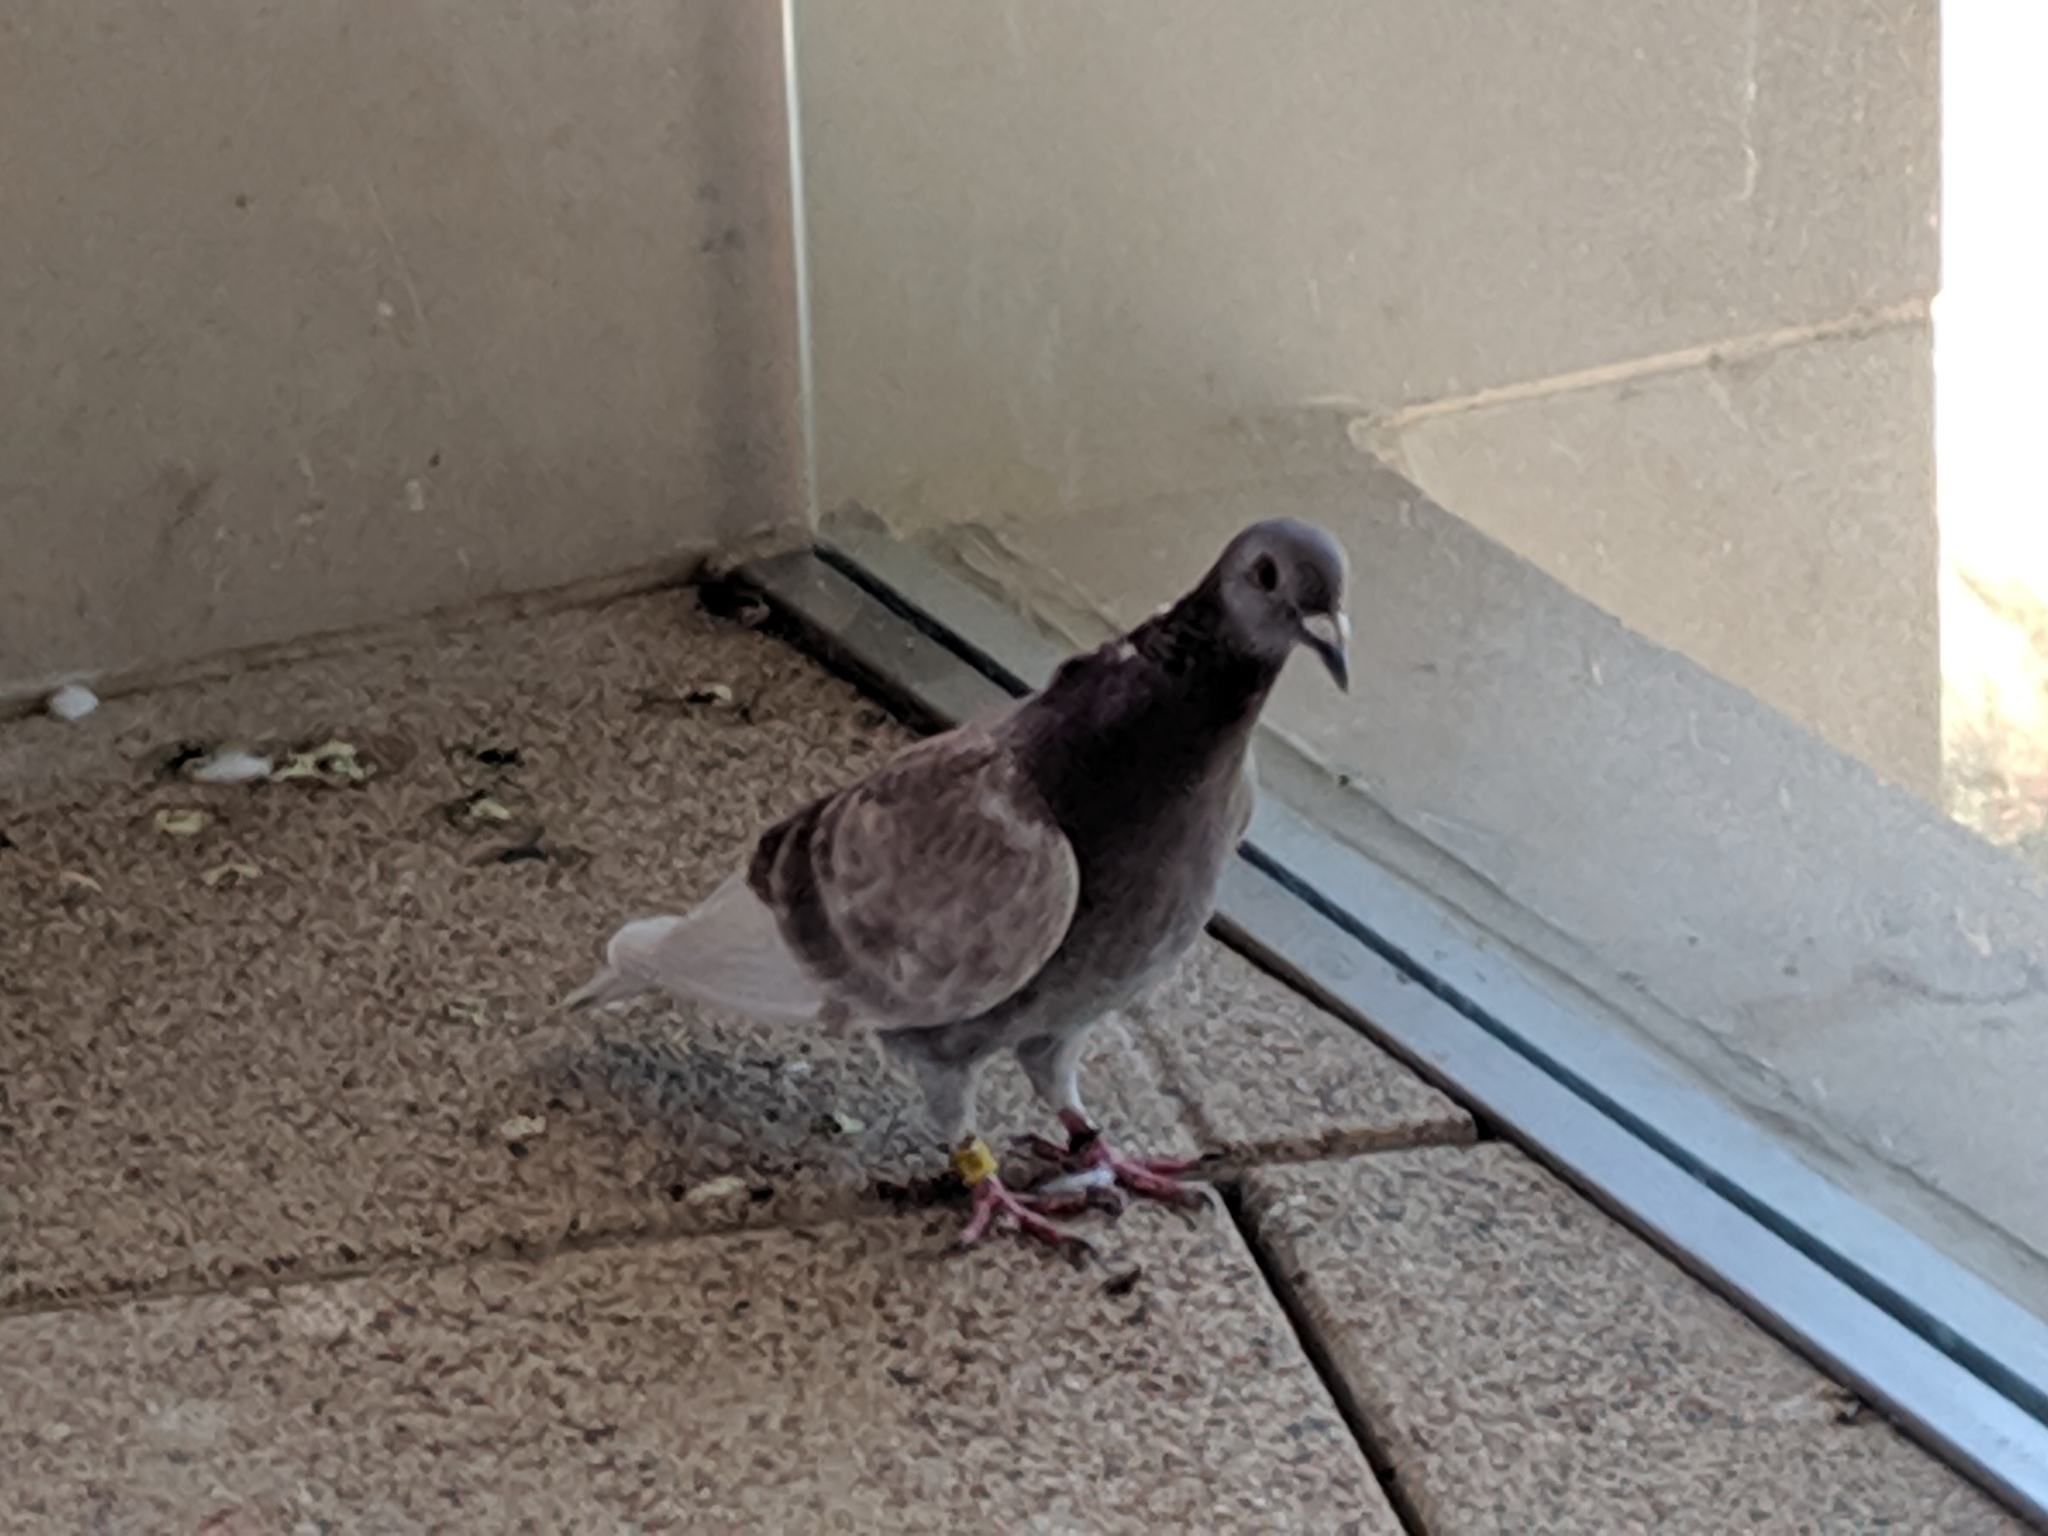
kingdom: Animalia
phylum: Chordata
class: Aves
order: Columbiformes
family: Columbidae
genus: Columba
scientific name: Columba livia
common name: Rock pigeon
